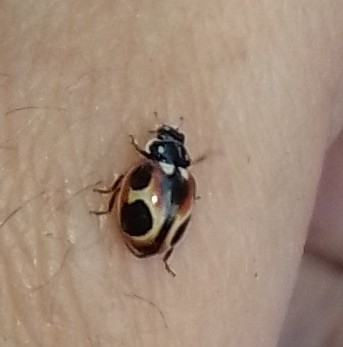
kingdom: Animalia
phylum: Arthropoda
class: Insecta
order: Coleoptera
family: Coccinellidae
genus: Cycloneda
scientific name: Cycloneda ancoralis
